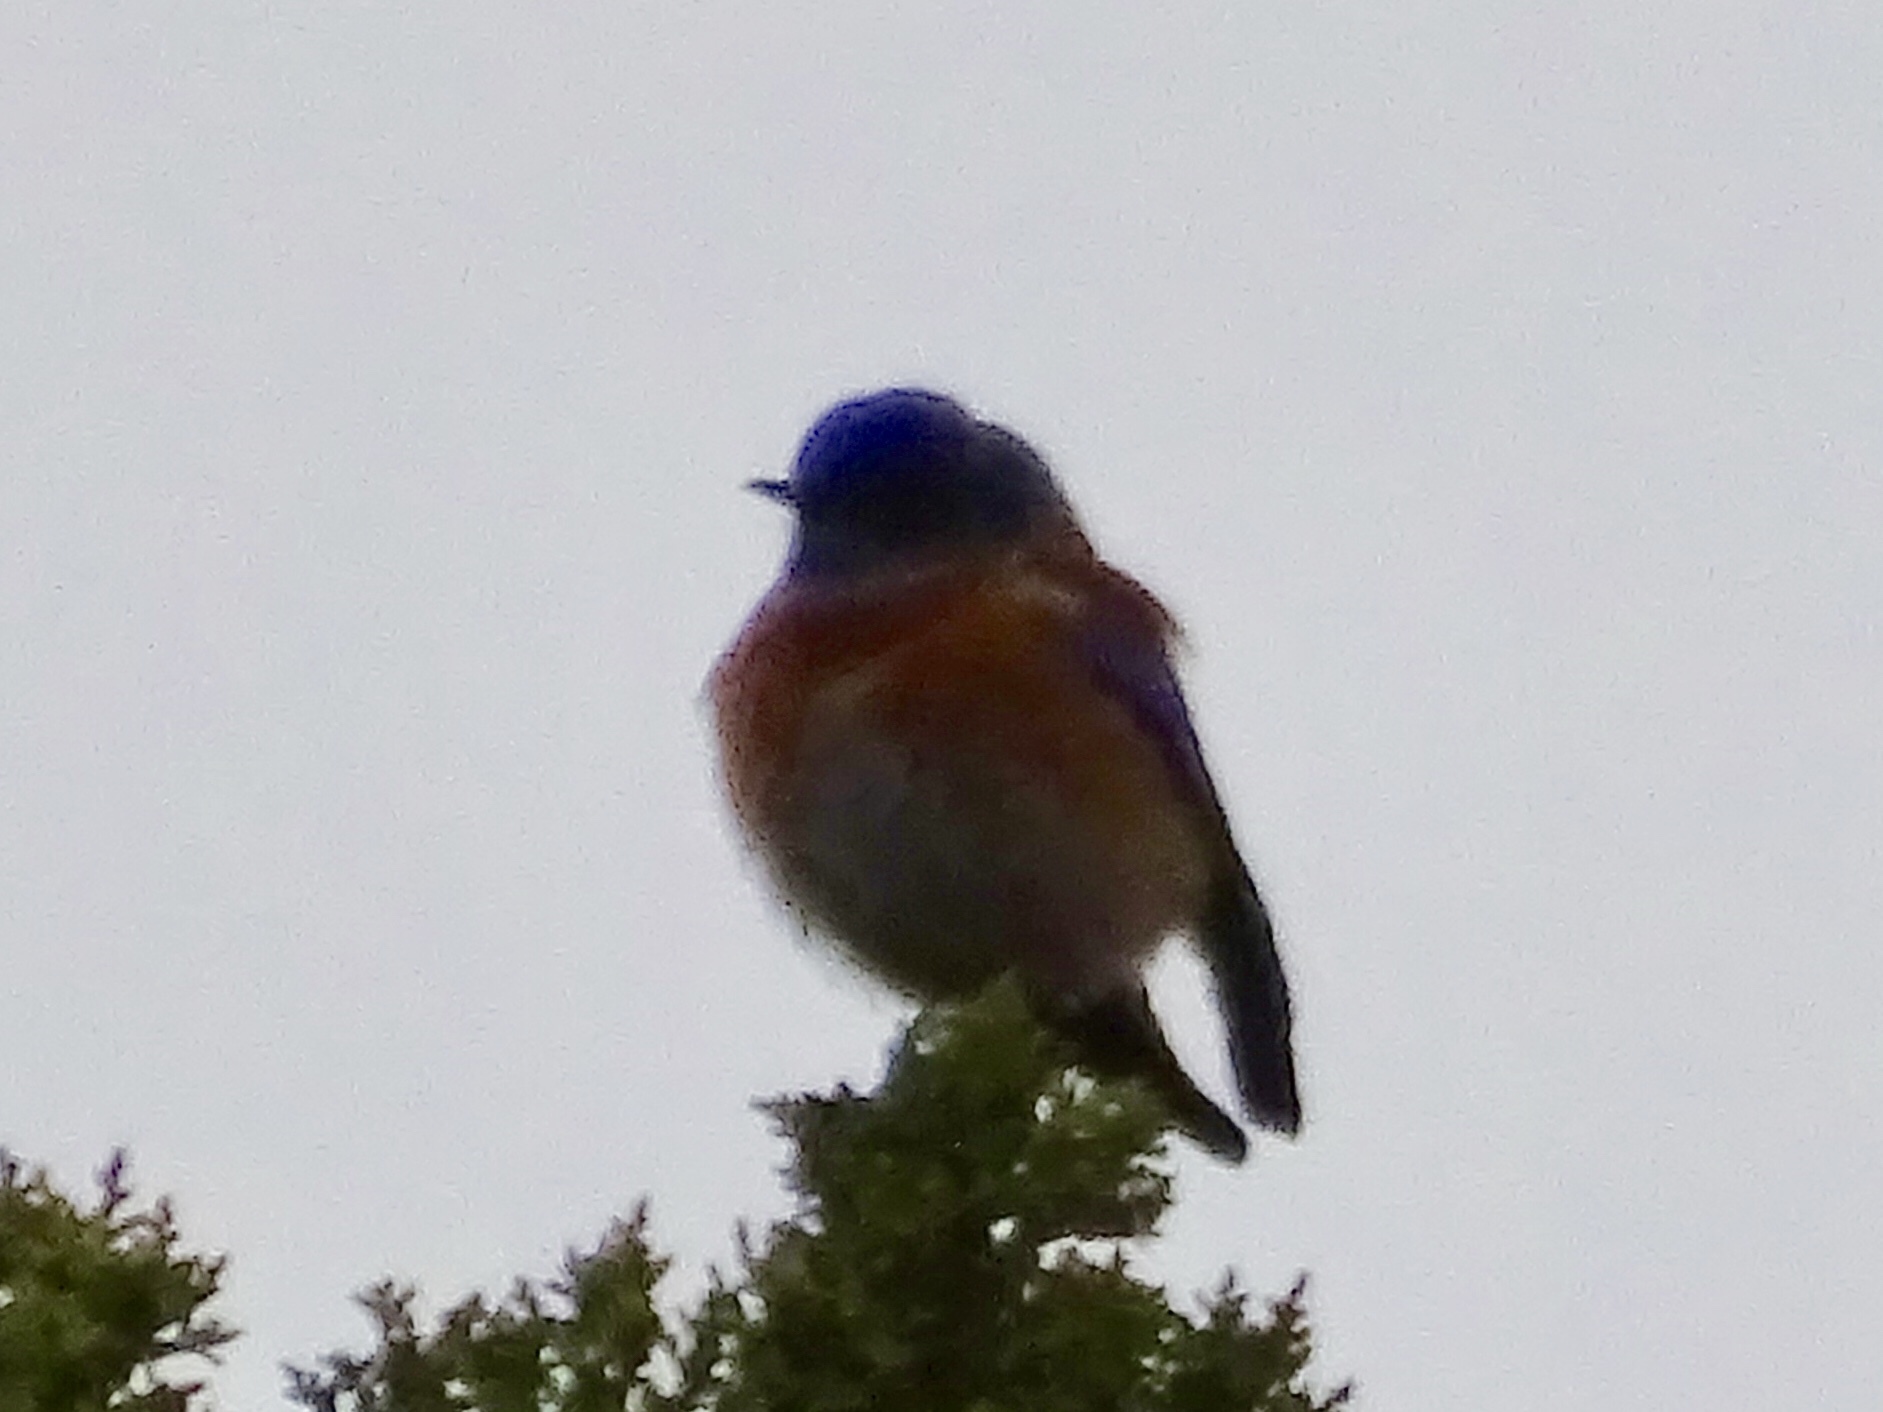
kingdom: Animalia
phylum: Chordata
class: Aves
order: Passeriformes
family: Turdidae
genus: Sialia
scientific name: Sialia mexicana
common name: Western bluebird
